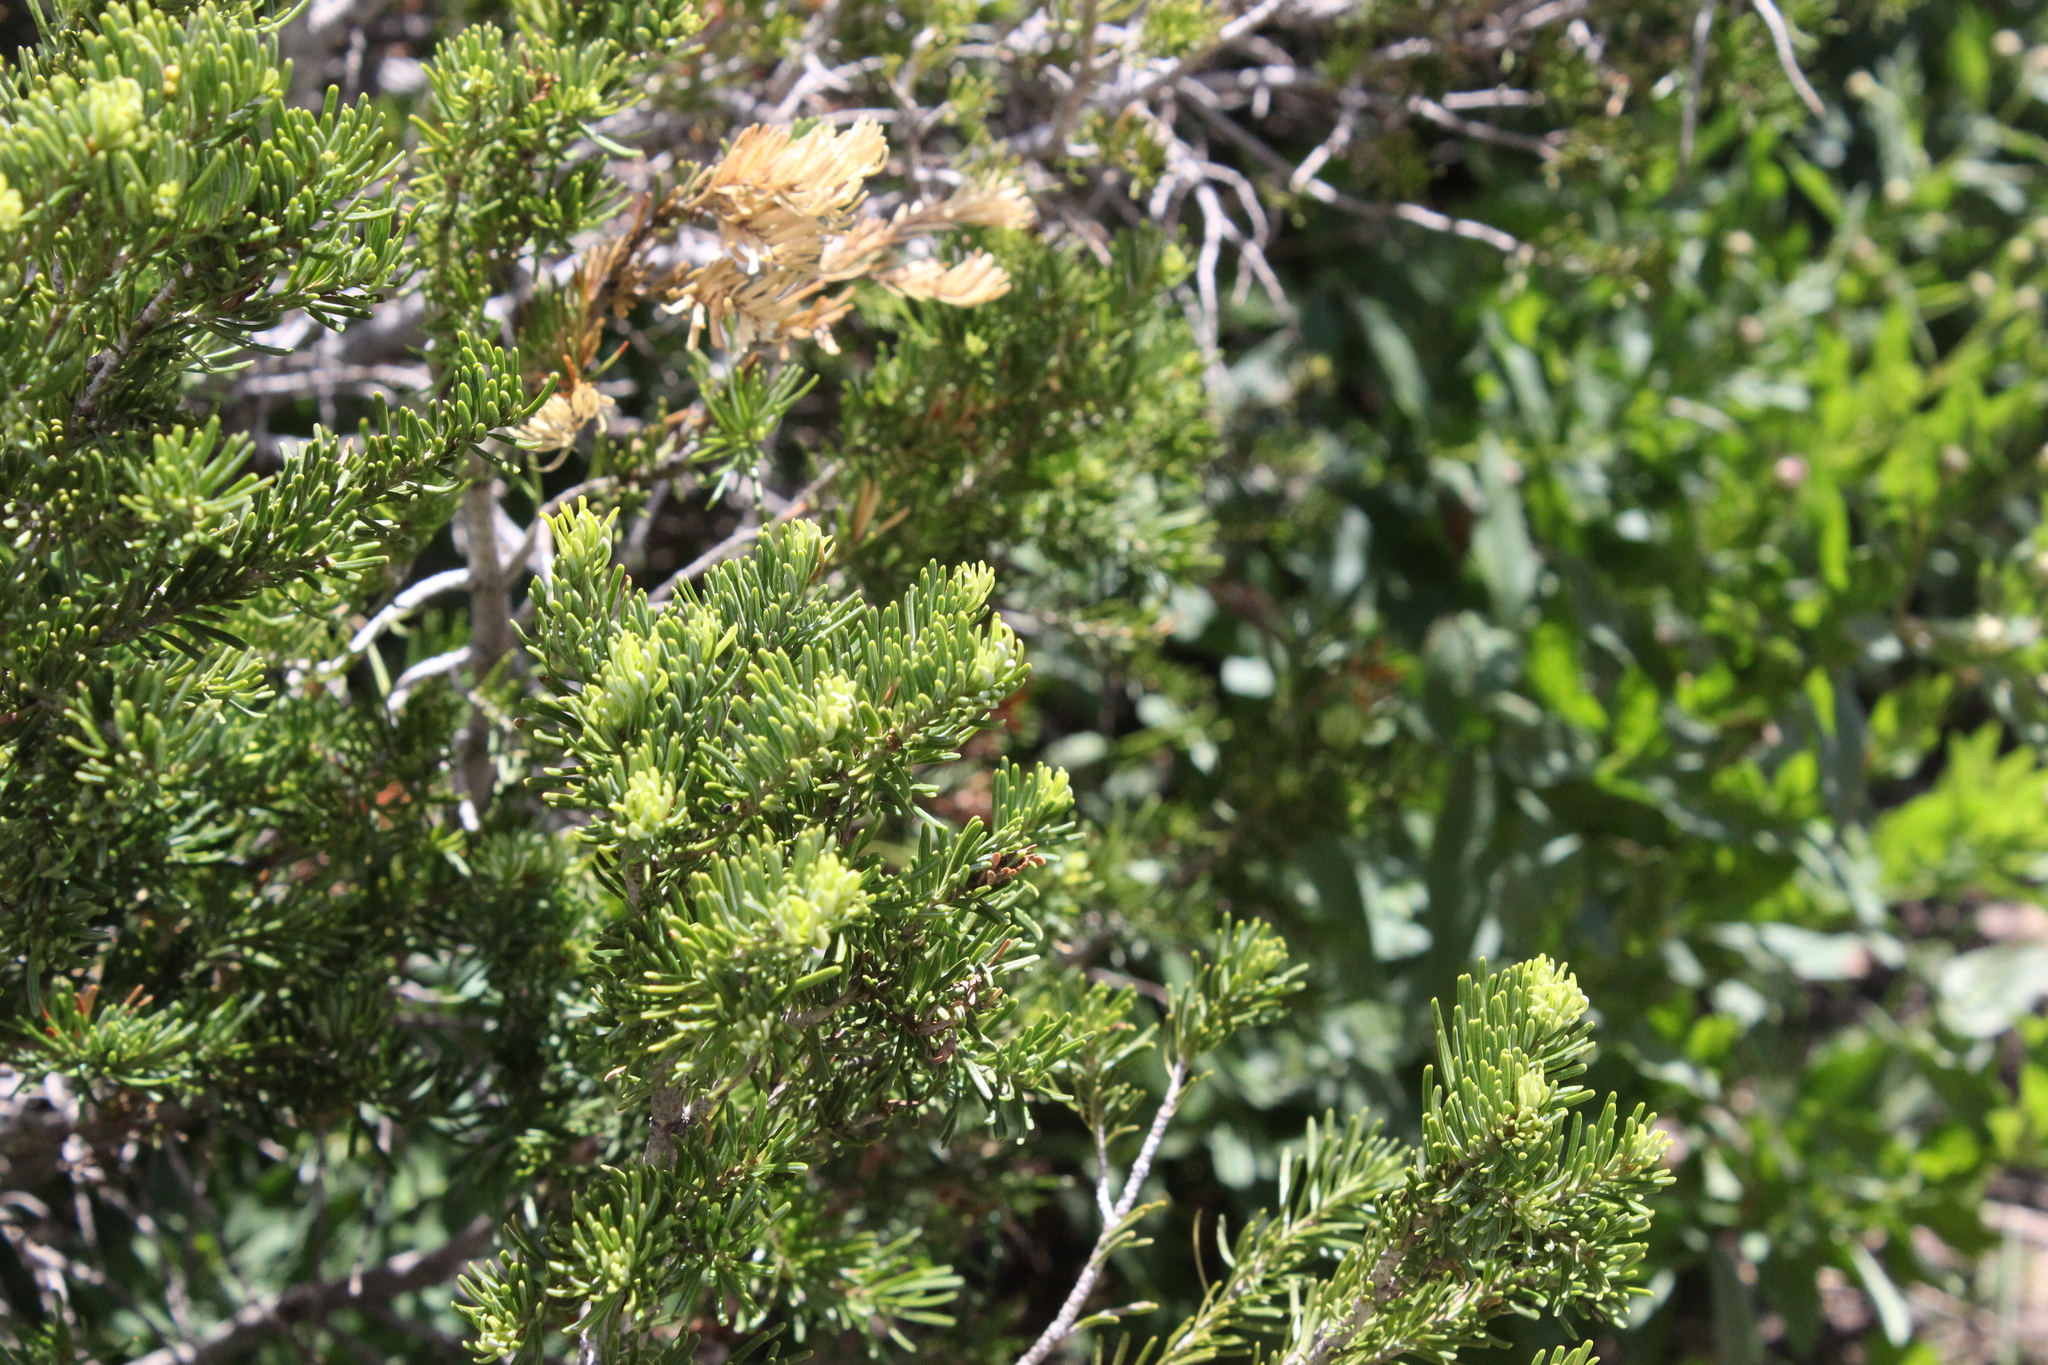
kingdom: Plantae
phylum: Tracheophyta
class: Pinopsida
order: Pinales
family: Pinaceae
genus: Abies
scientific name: Abies lasiocarpa
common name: Subalpine fir
